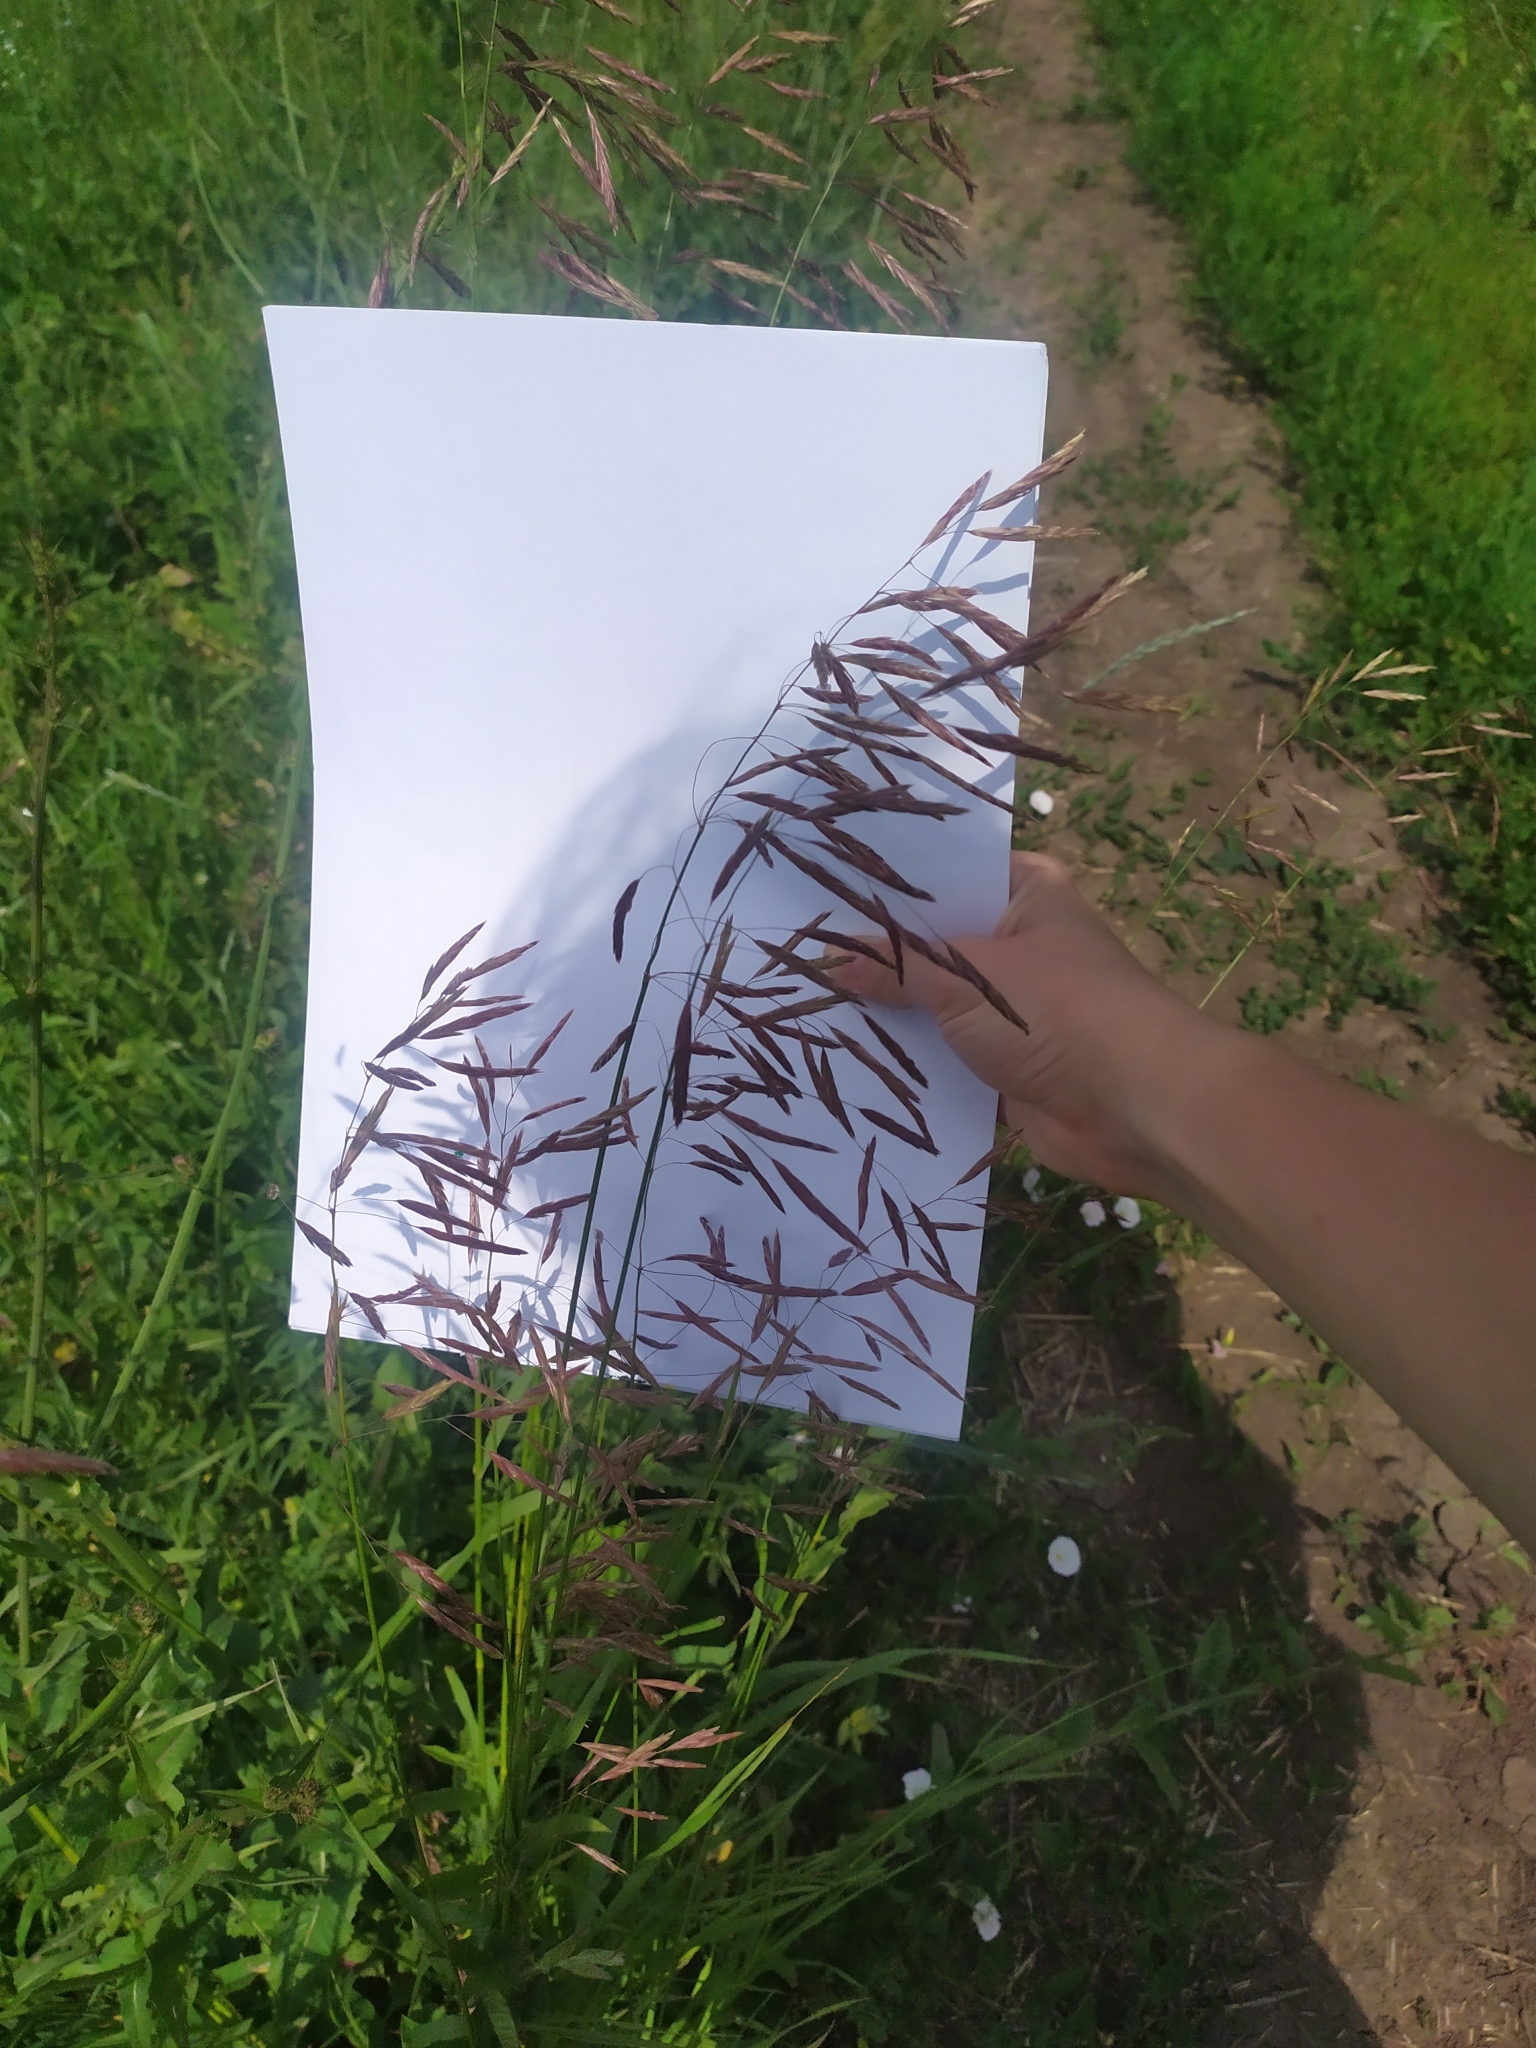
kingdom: Plantae
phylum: Tracheophyta
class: Liliopsida
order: Poales
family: Poaceae
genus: Bromus
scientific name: Bromus inermis
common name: Smooth brome
